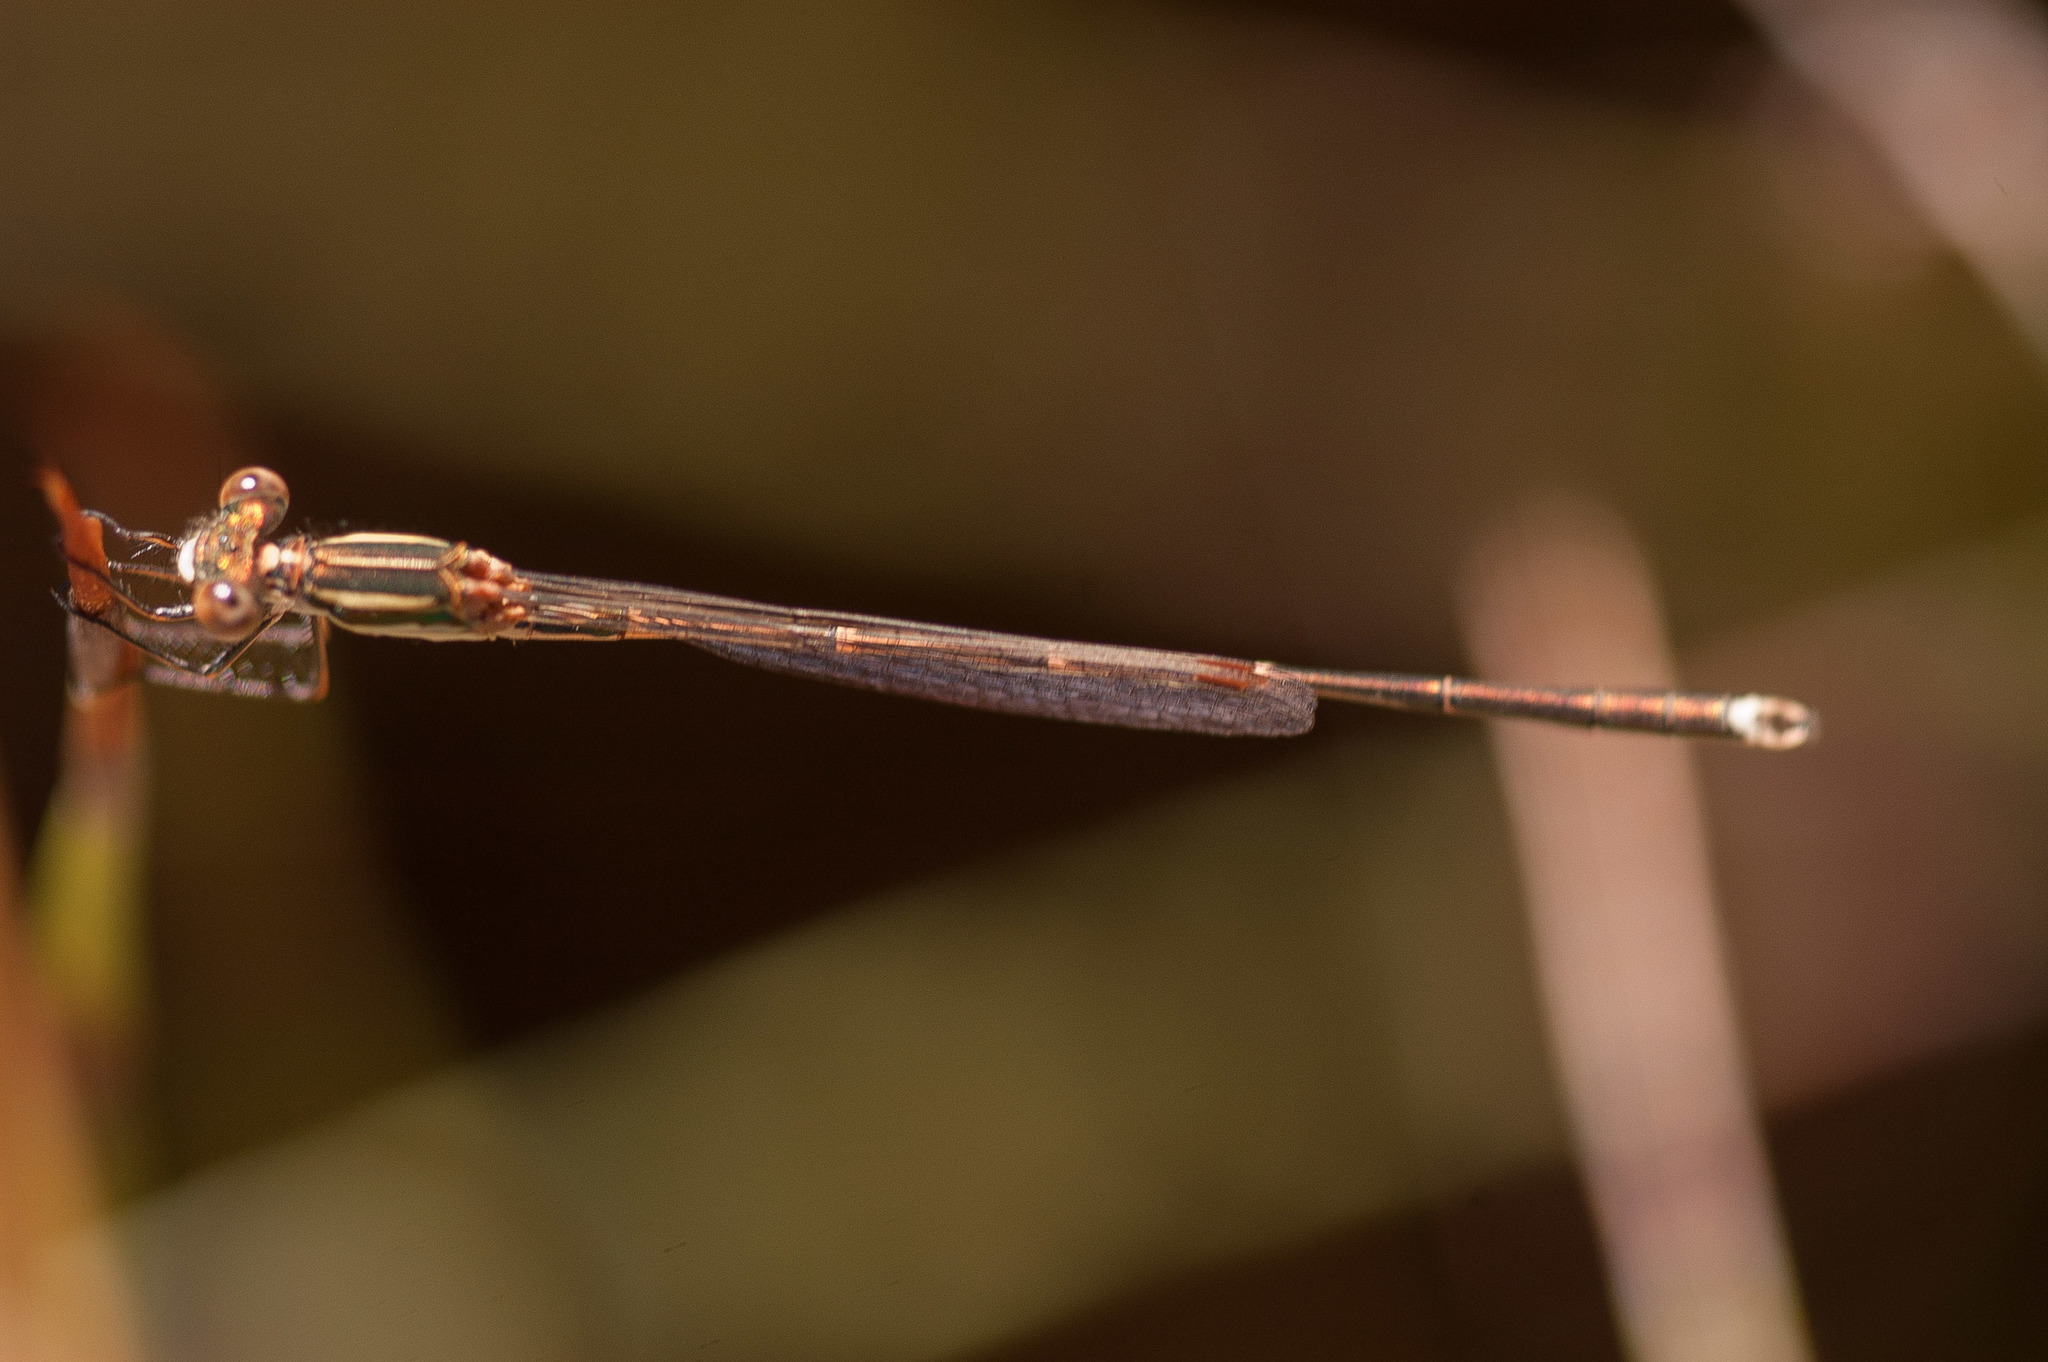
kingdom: Animalia
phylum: Arthropoda
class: Insecta
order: Odonata
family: Lestidae
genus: Austrolestes
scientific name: Austrolestes analis
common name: Slender ringtail
